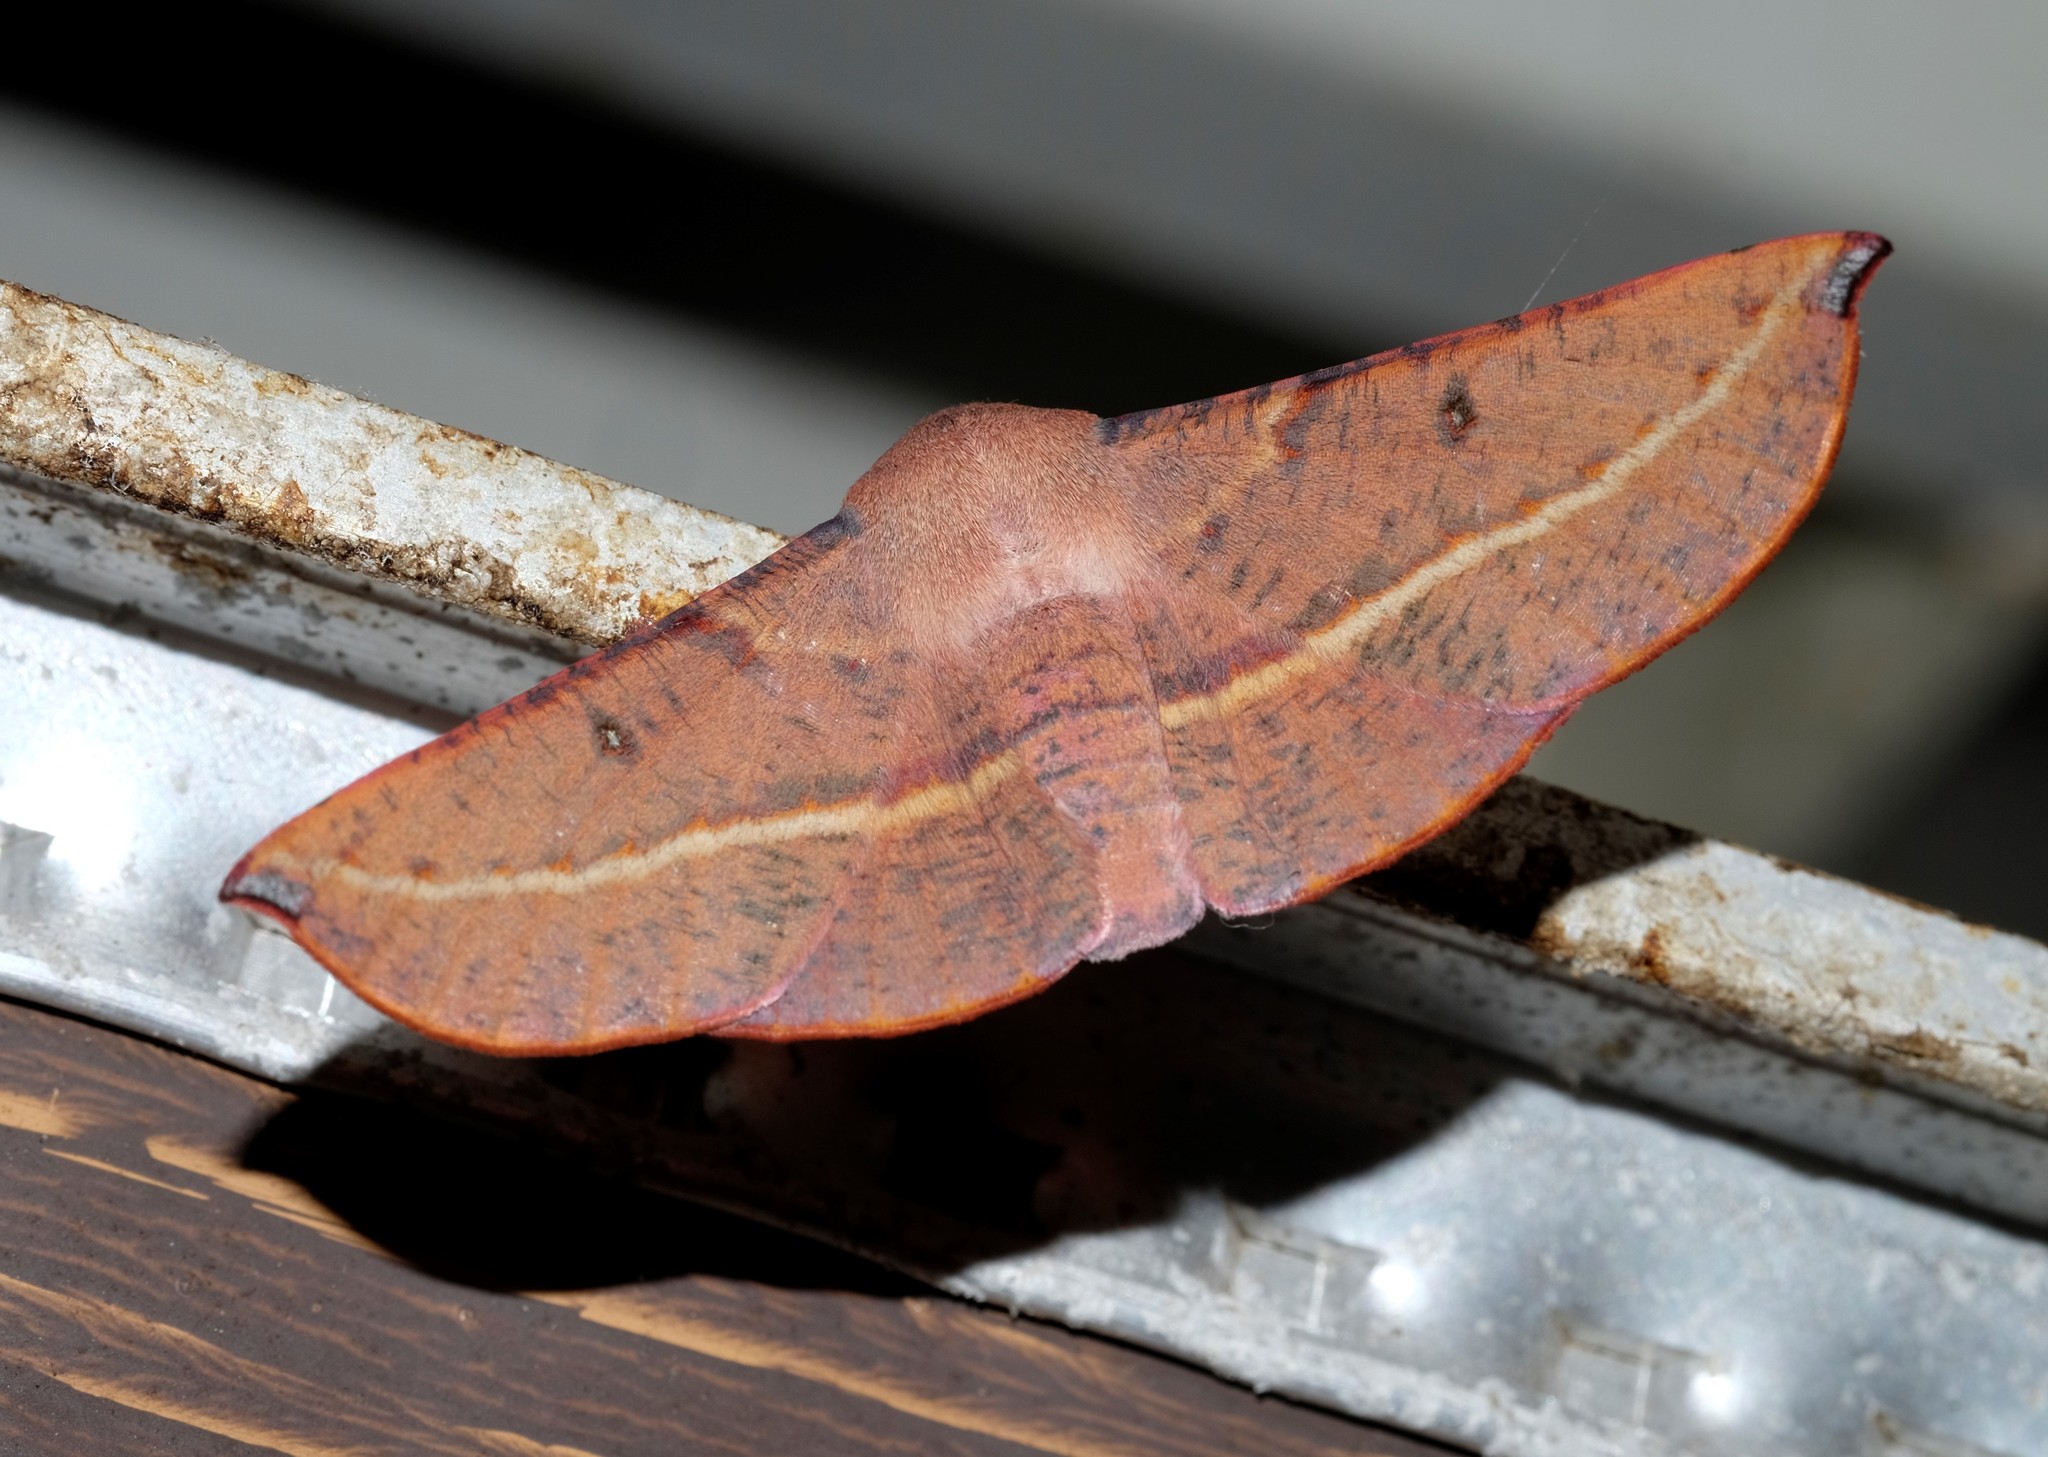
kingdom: Animalia
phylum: Arthropoda
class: Insecta
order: Lepidoptera
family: Geometridae
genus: Oenochroma
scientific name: Oenochroma vinaria
